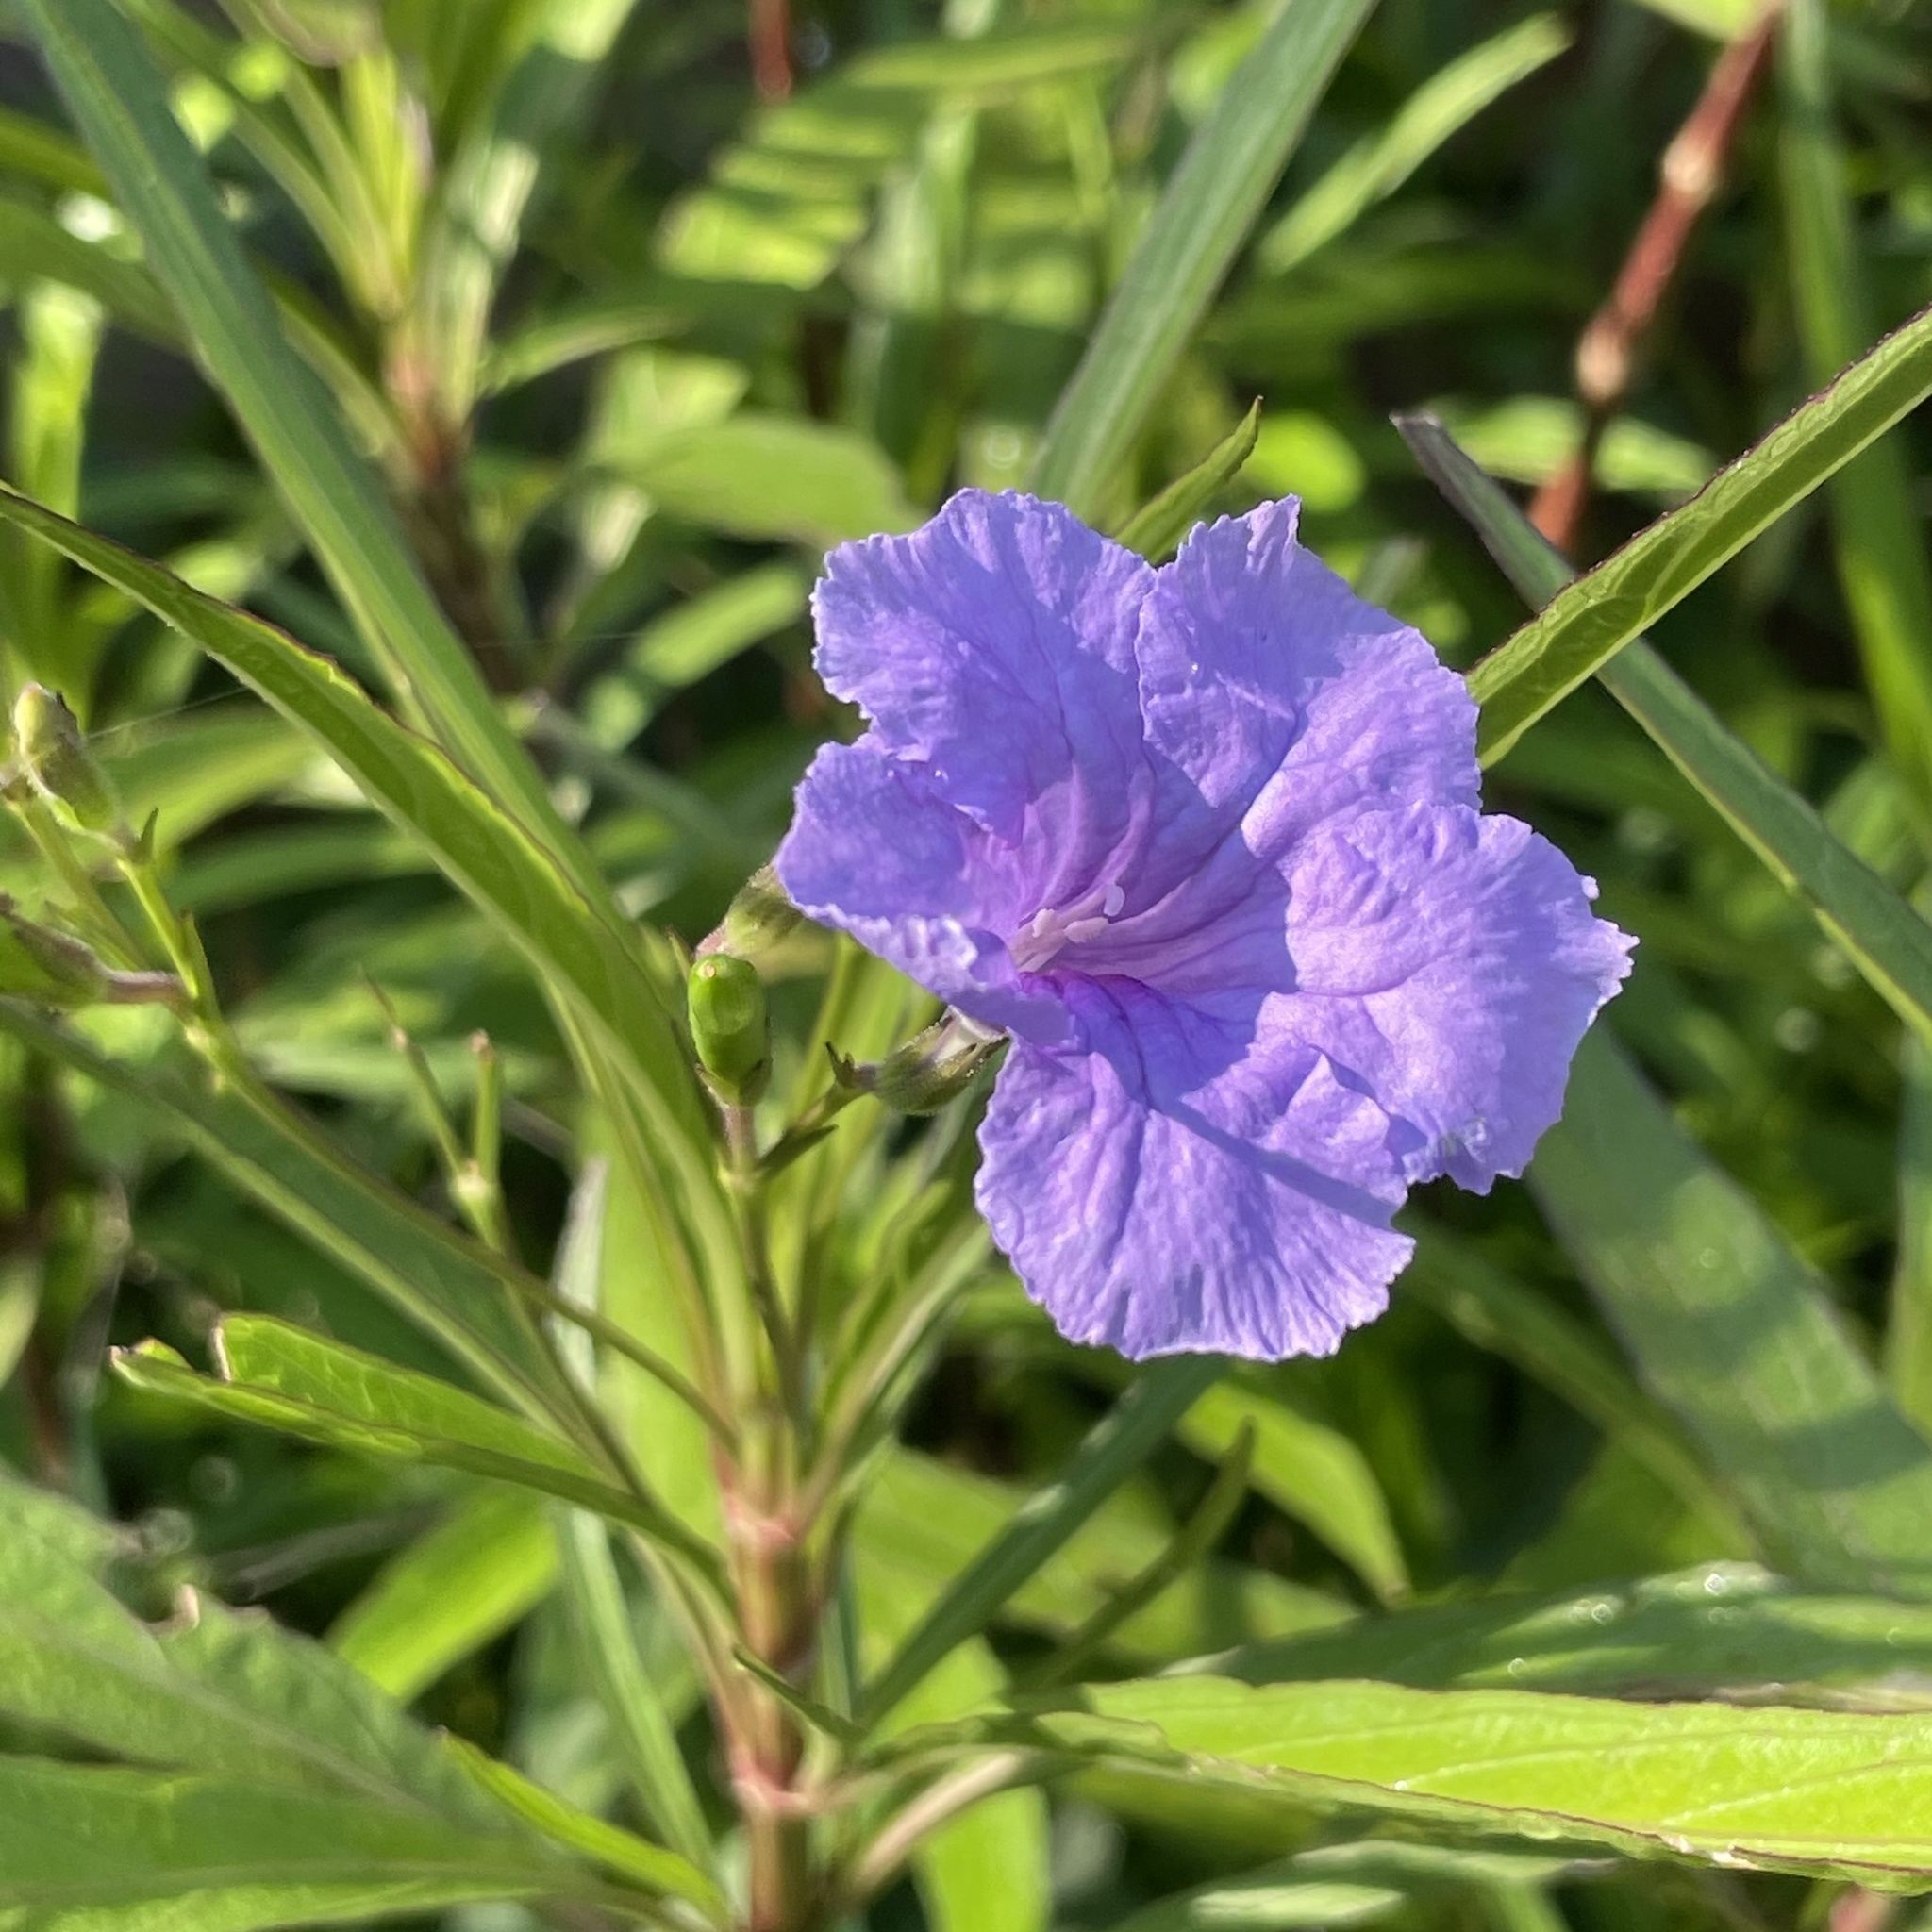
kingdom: Plantae
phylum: Tracheophyta
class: Magnoliopsida
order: Lamiales
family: Acanthaceae
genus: Ruellia
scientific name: Ruellia simplex
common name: Softseed wild petunia
